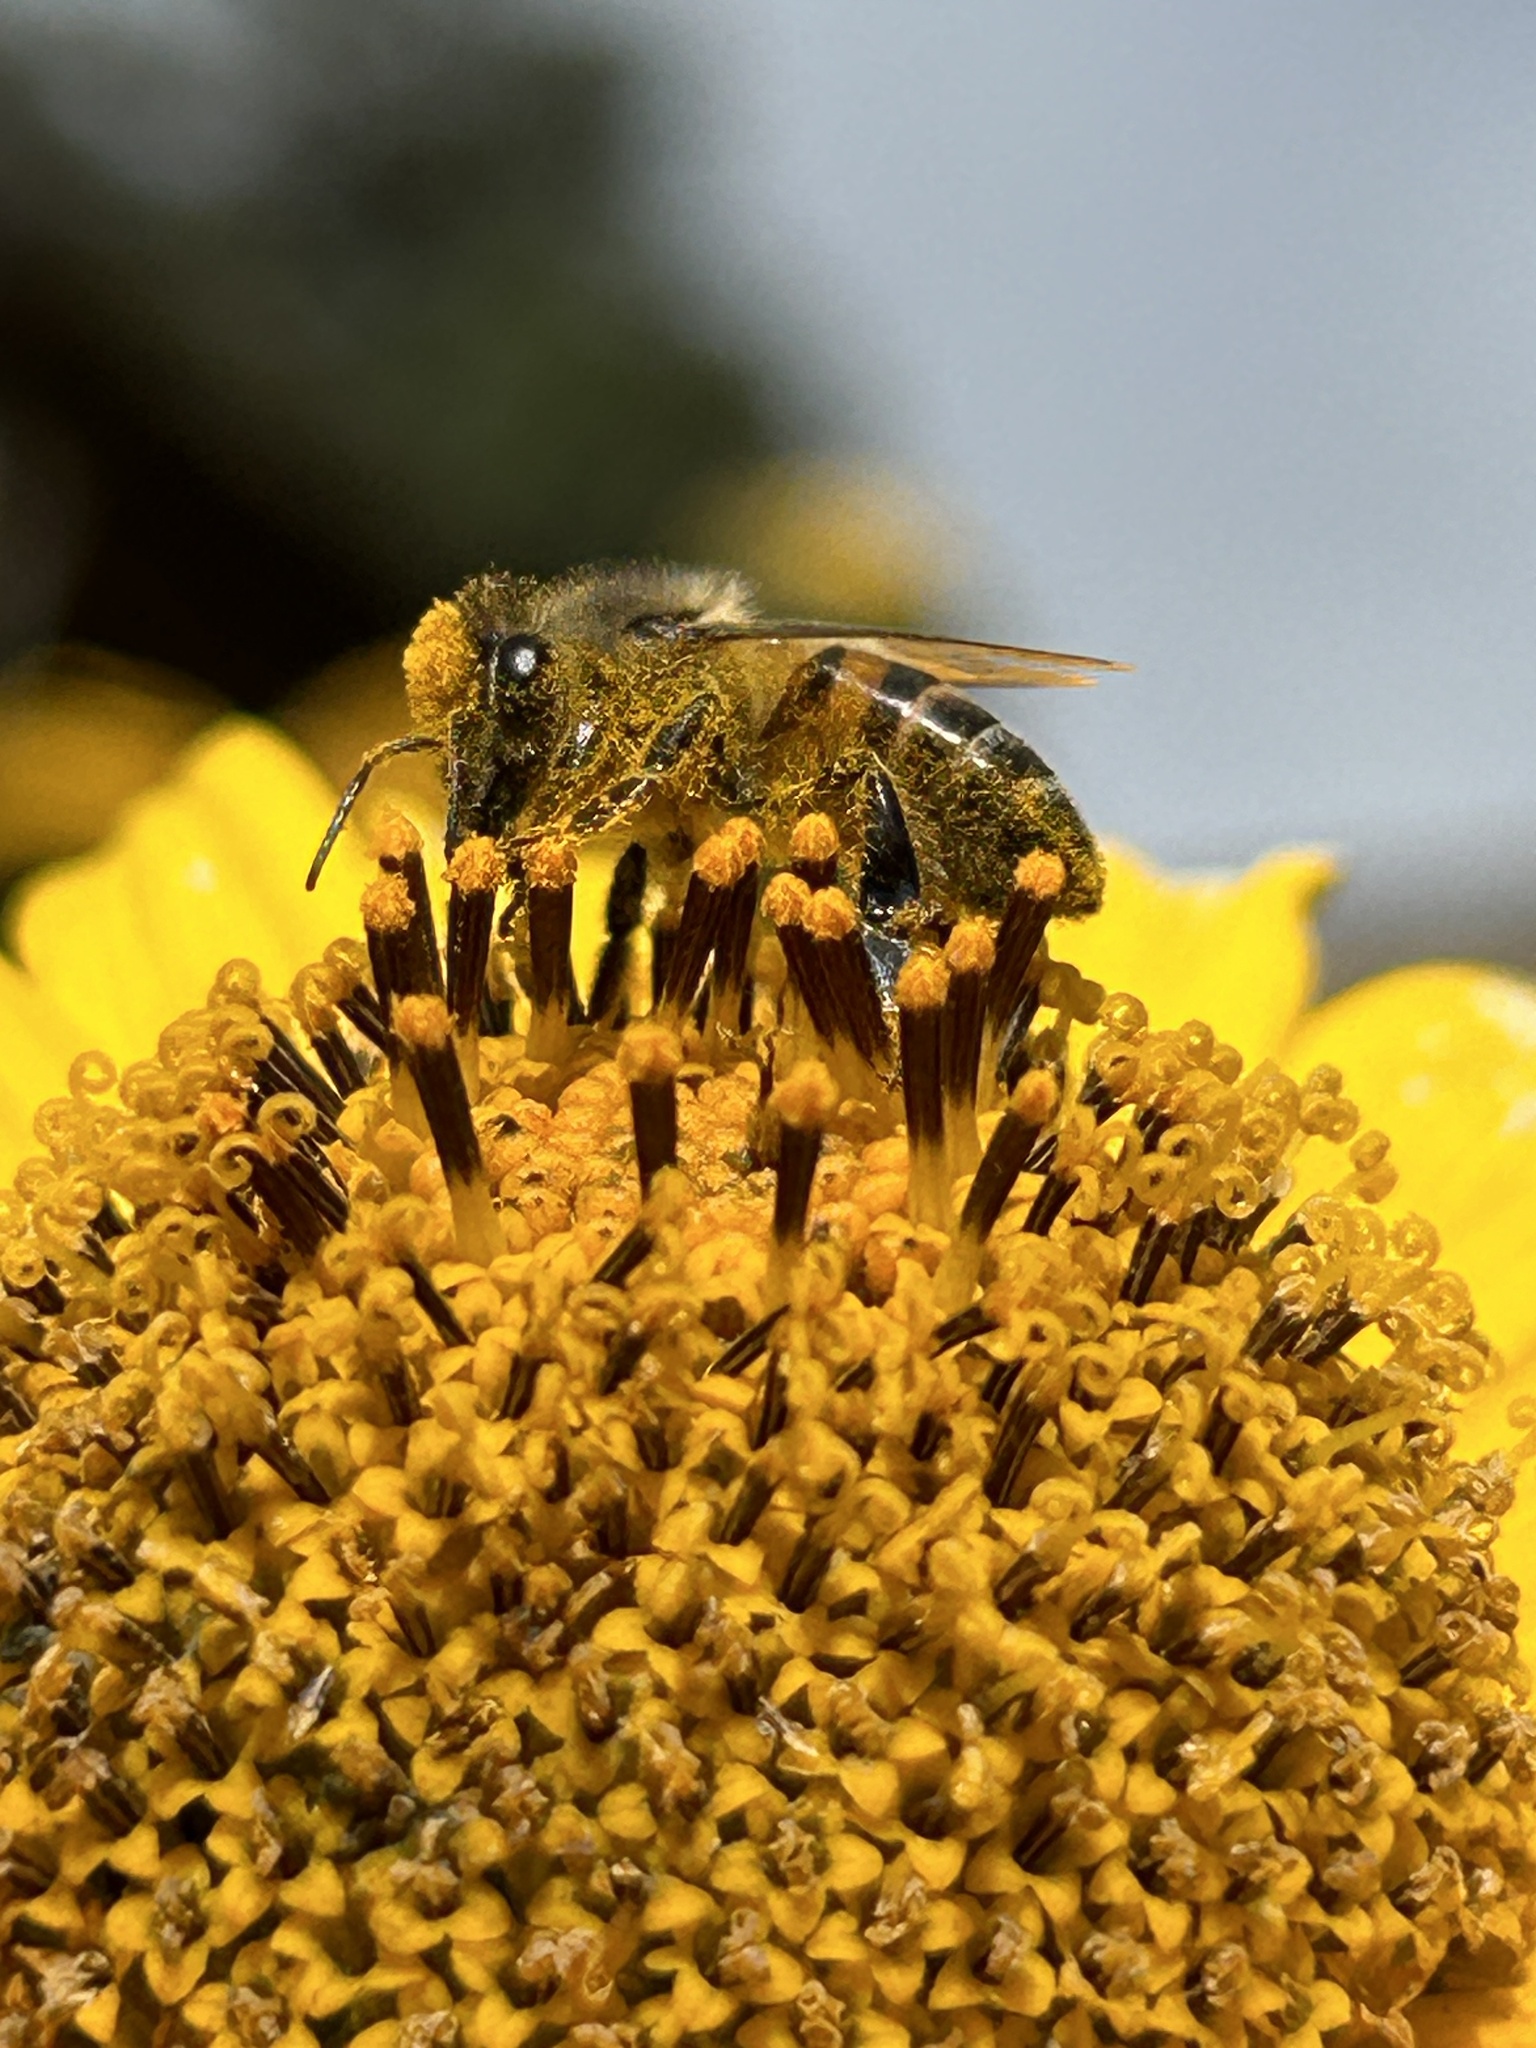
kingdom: Animalia
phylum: Arthropoda
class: Insecta
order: Hymenoptera
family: Apidae
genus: Apis
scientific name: Apis mellifera
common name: Honey bee
